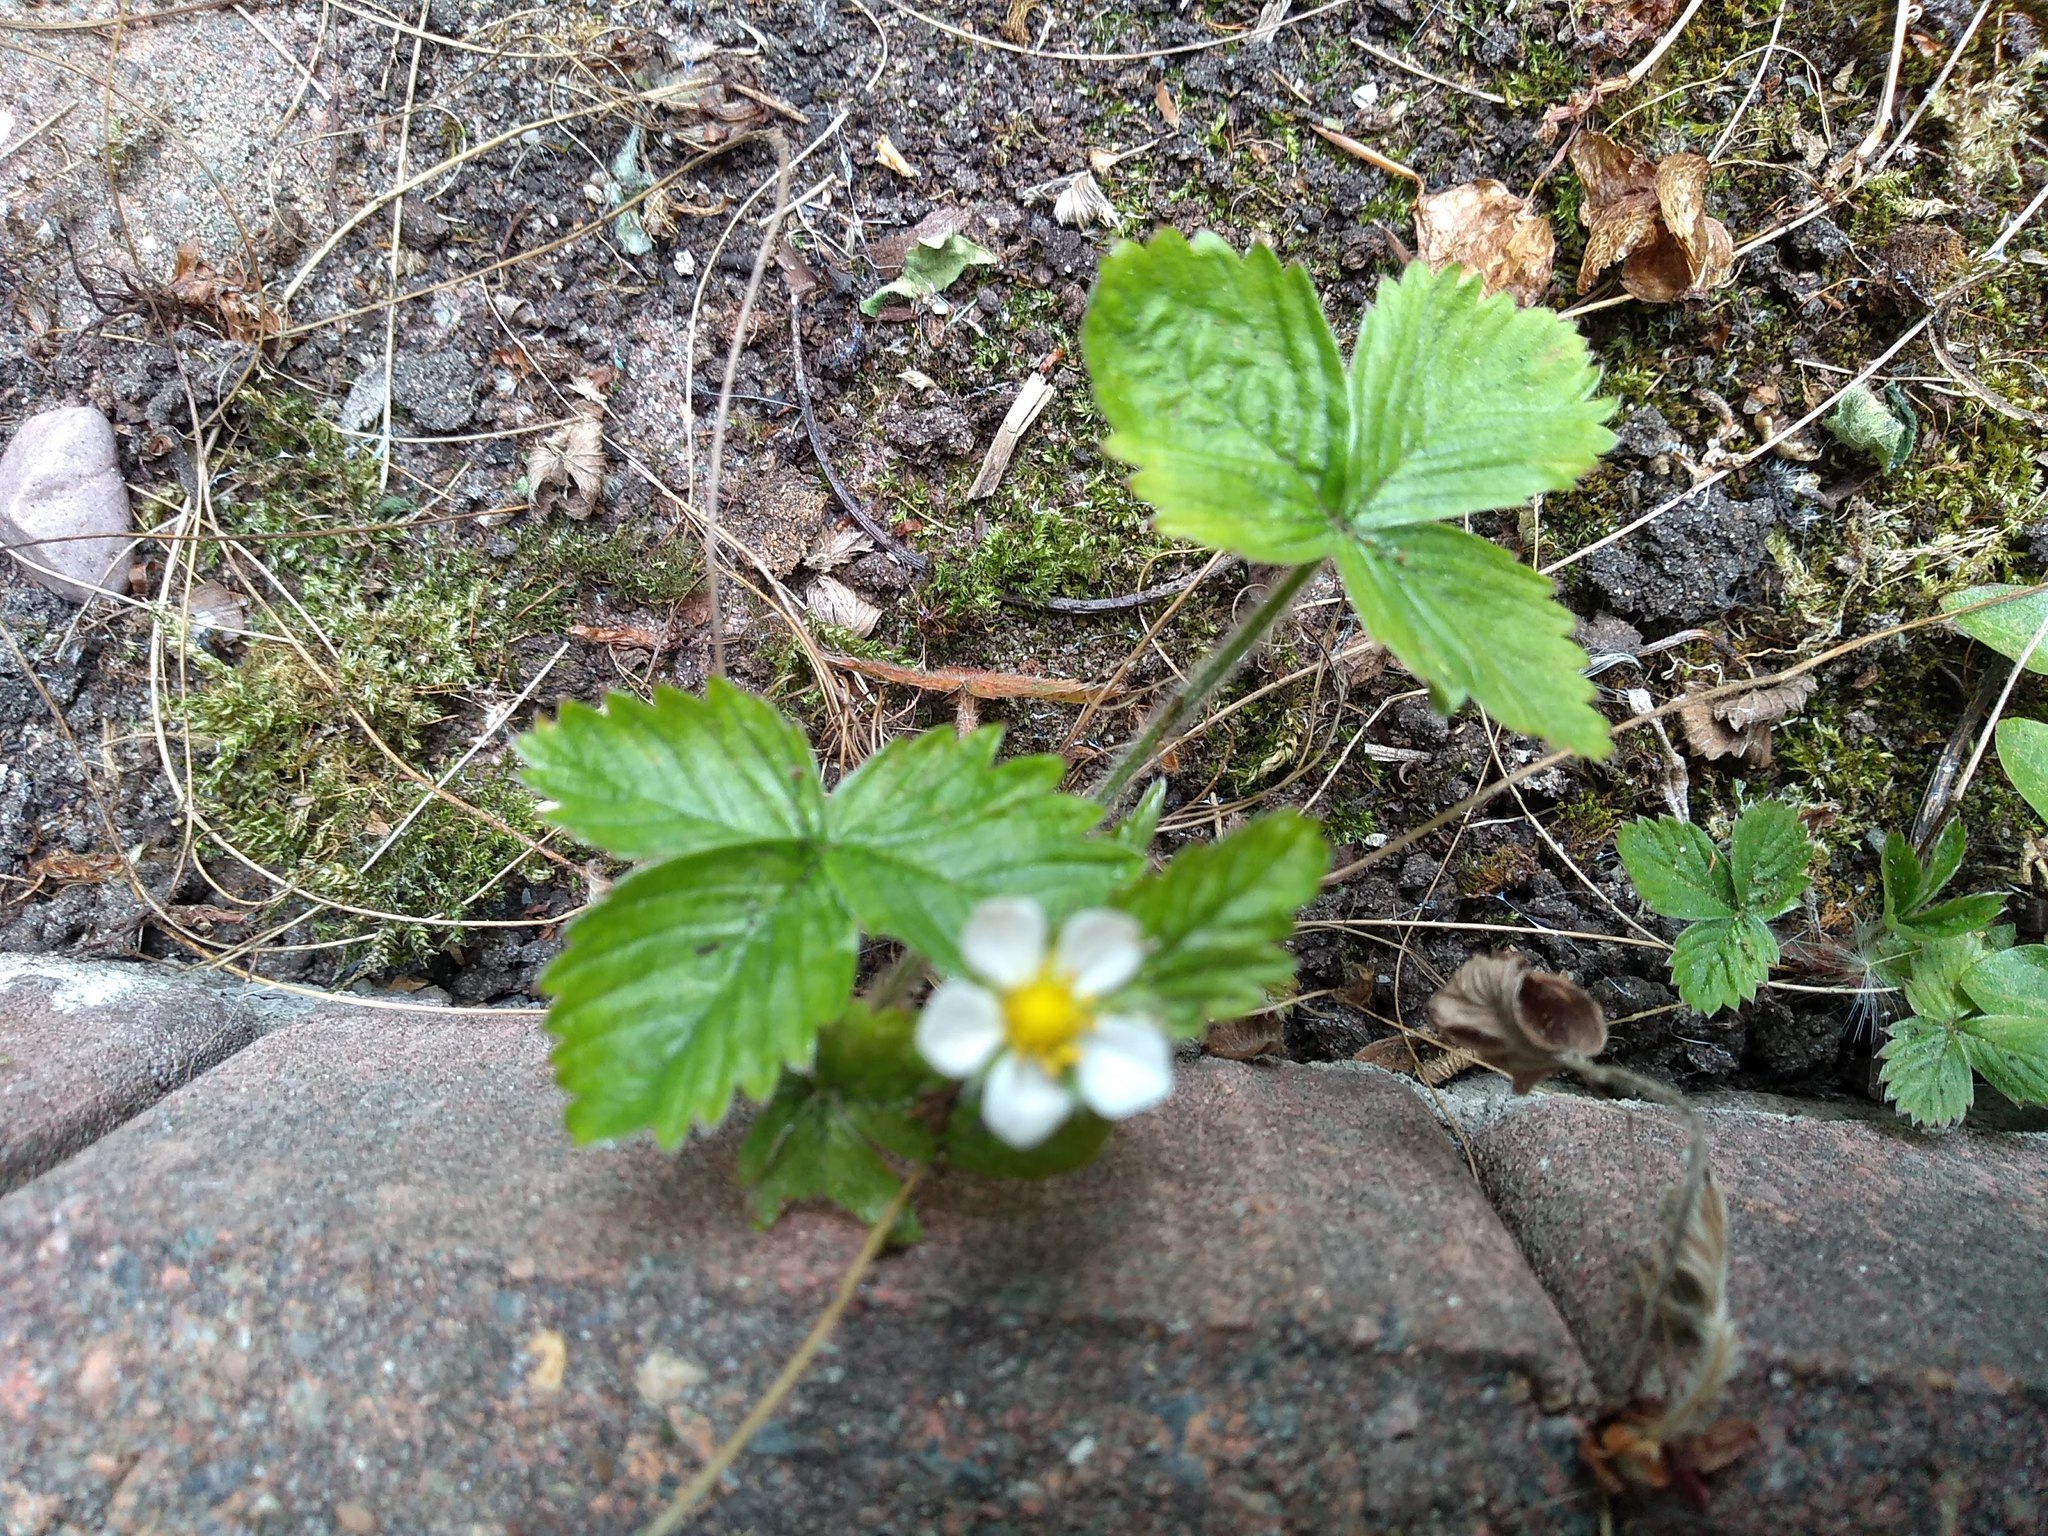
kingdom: Plantae
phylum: Tracheophyta
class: Magnoliopsida
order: Rosales
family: Rosaceae
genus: Fragaria
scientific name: Fragaria vesca
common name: Wild strawberry
